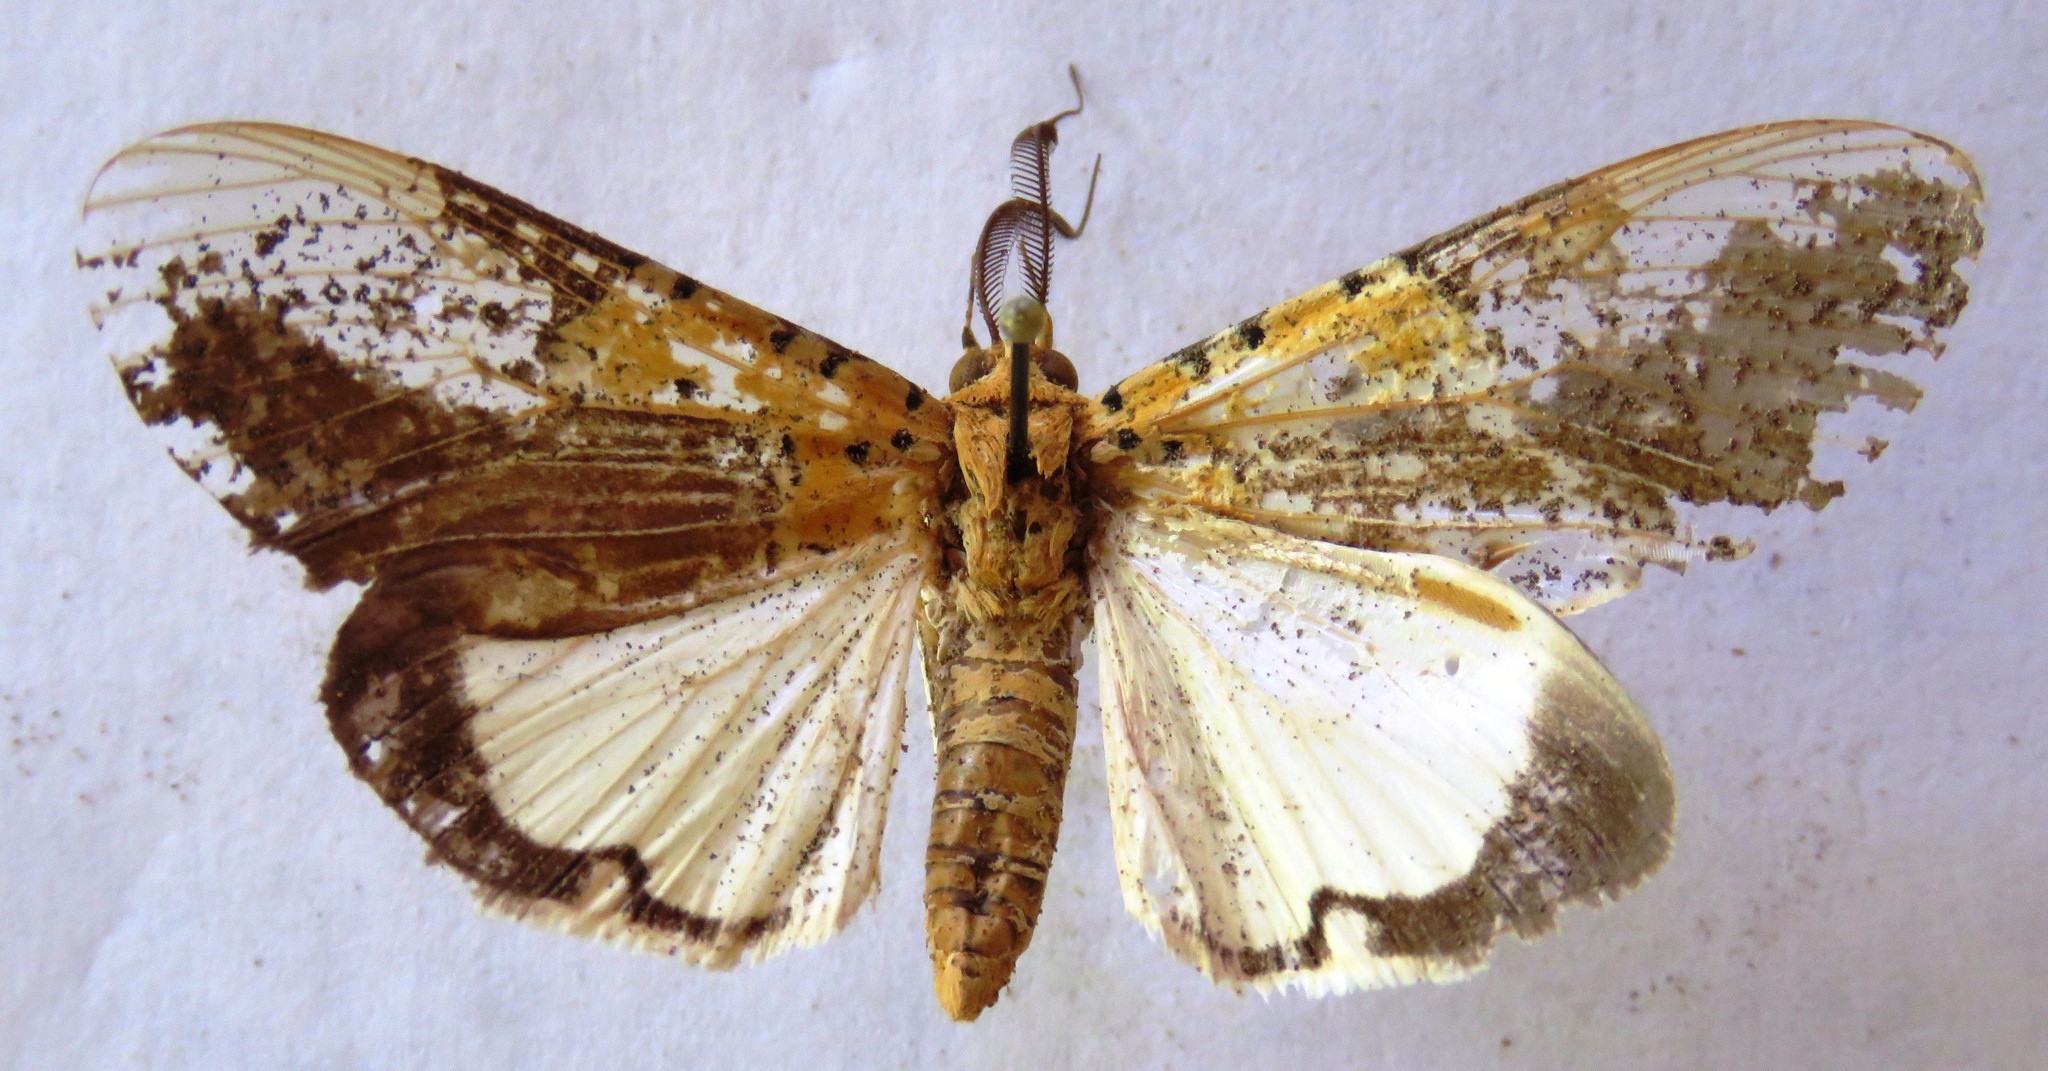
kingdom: Animalia
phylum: Arthropoda
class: Insecta
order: Lepidoptera
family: Erebidae
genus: Asota
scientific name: Asota speciosa
